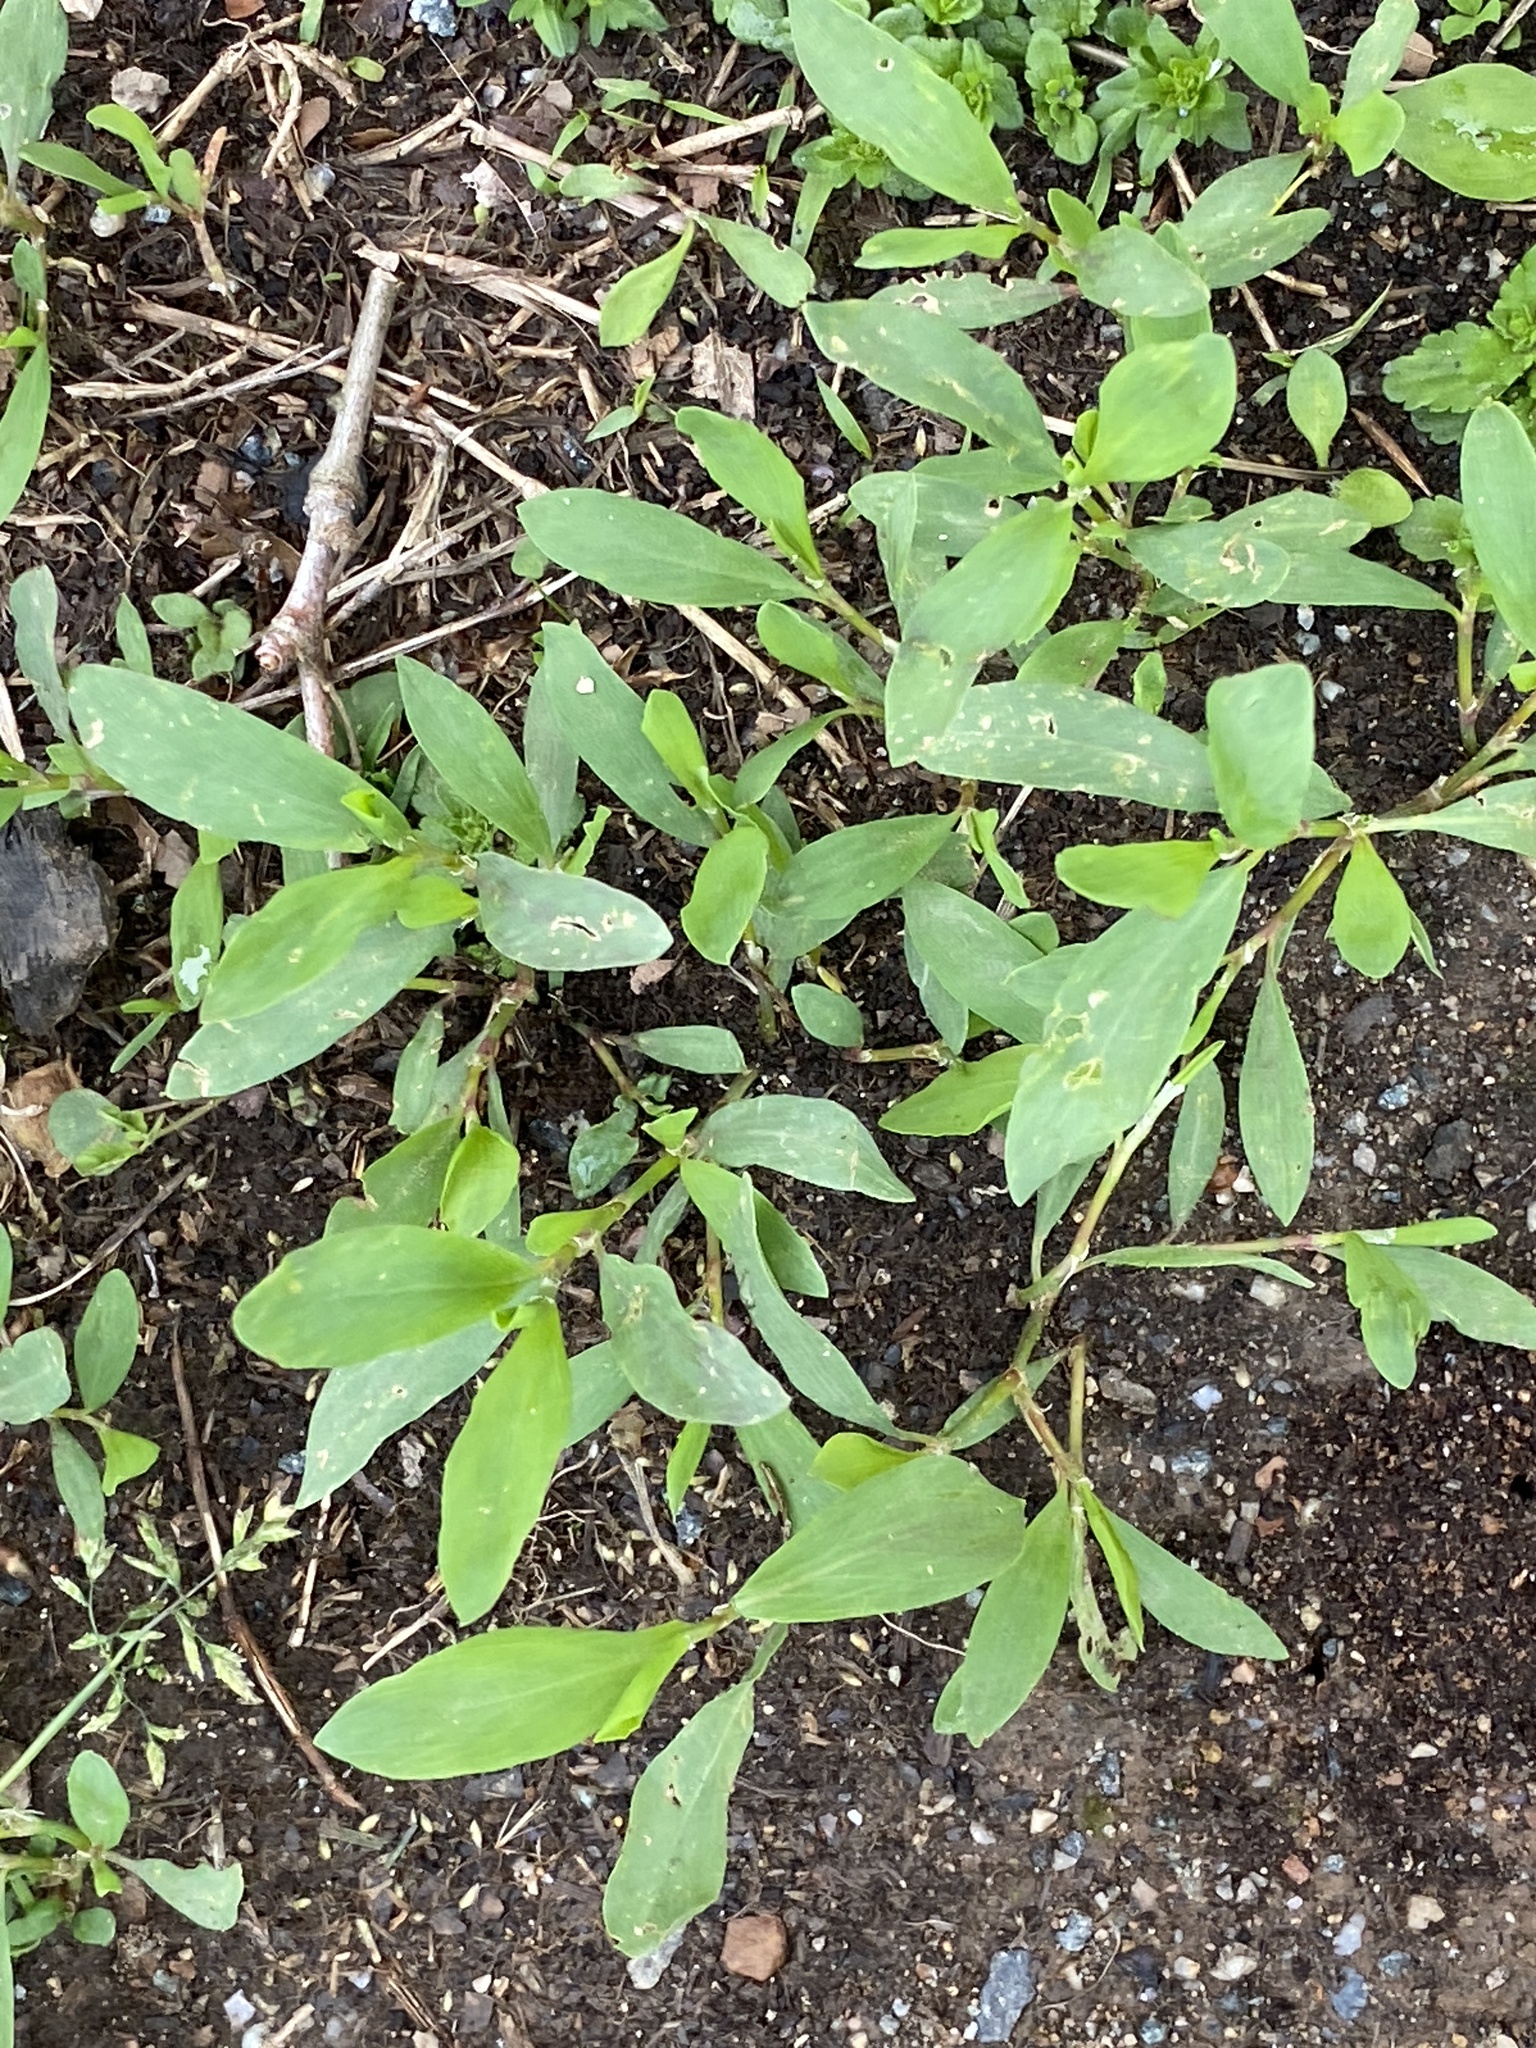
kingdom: Plantae
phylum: Tracheophyta
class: Magnoliopsida
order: Caryophyllales
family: Polygonaceae
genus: Polygonum
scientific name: Polygonum aviculare
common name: Prostrate knotweed
